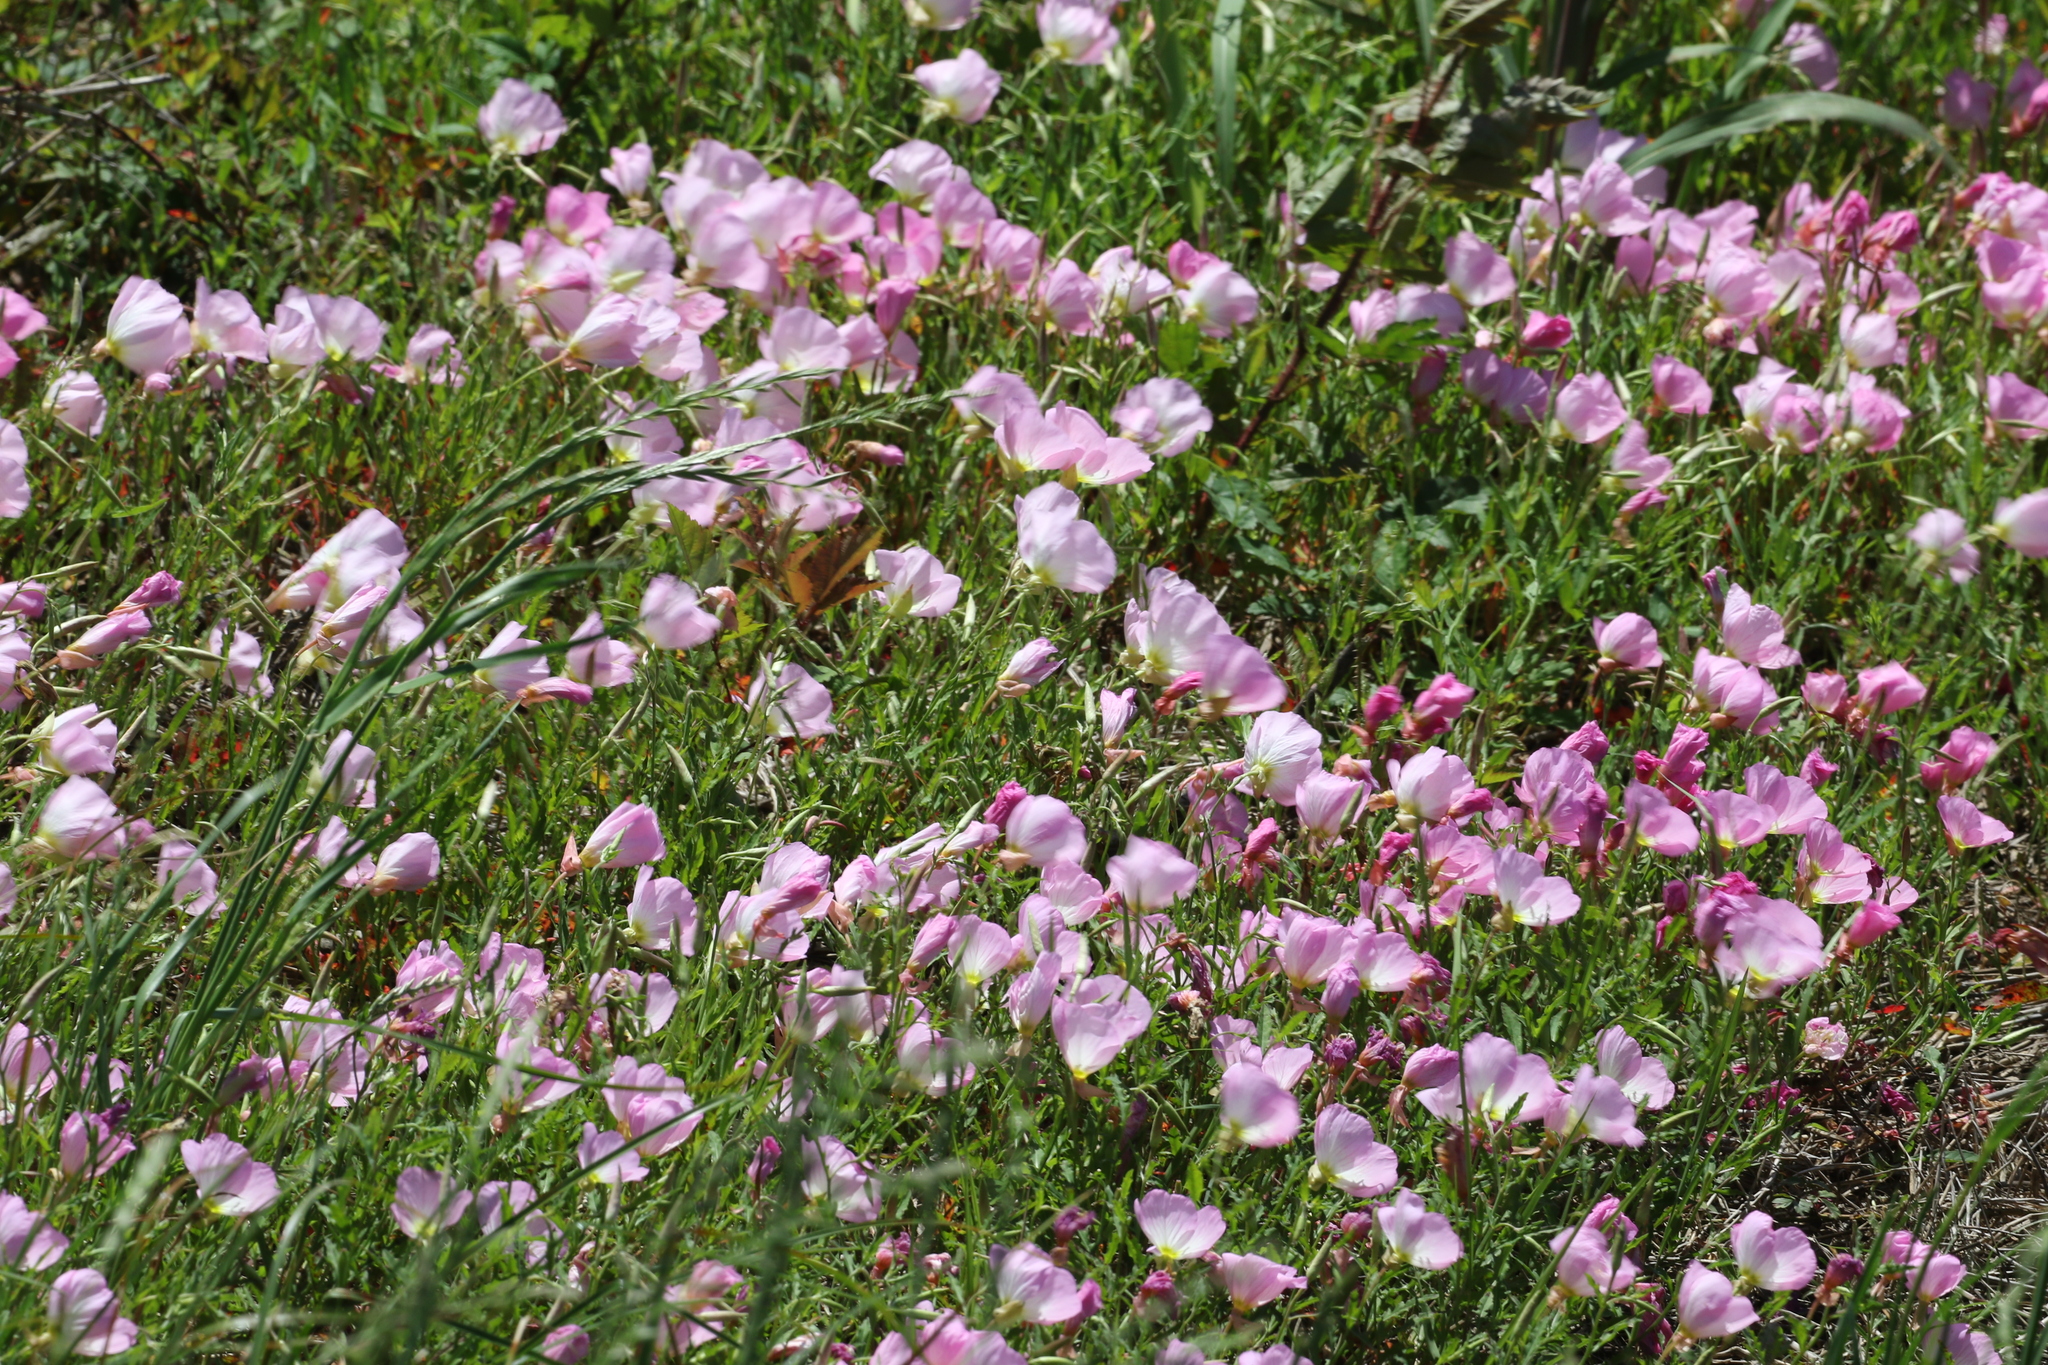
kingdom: Plantae
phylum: Tracheophyta
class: Magnoliopsida
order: Myrtales
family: Onagraceae
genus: Oenothera
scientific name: Oenothera speciosa
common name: White evening-primrose
